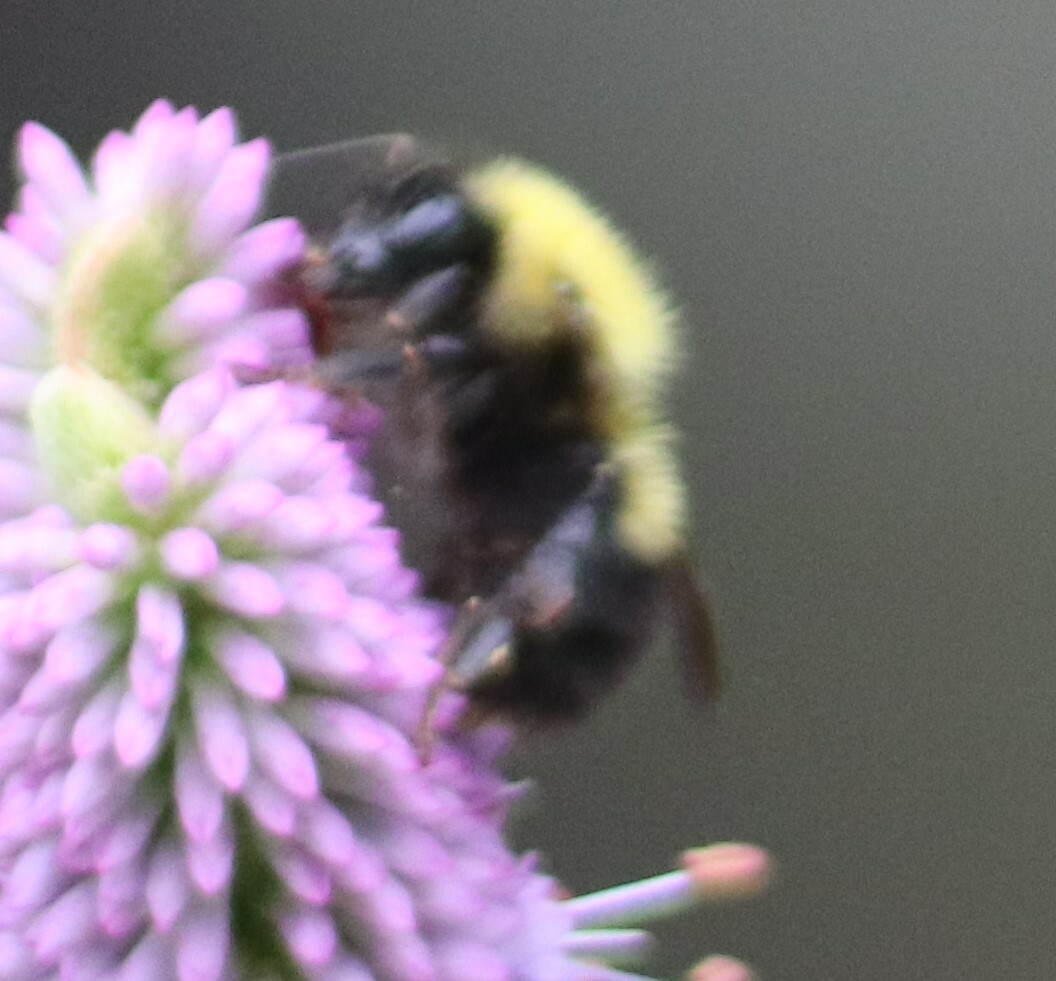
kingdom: Animalia
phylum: Arthropoda
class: Insecta
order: Hymenoptera
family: Apidae
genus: Bombus
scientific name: Bombus perplexus
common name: Confusing bumble bee
